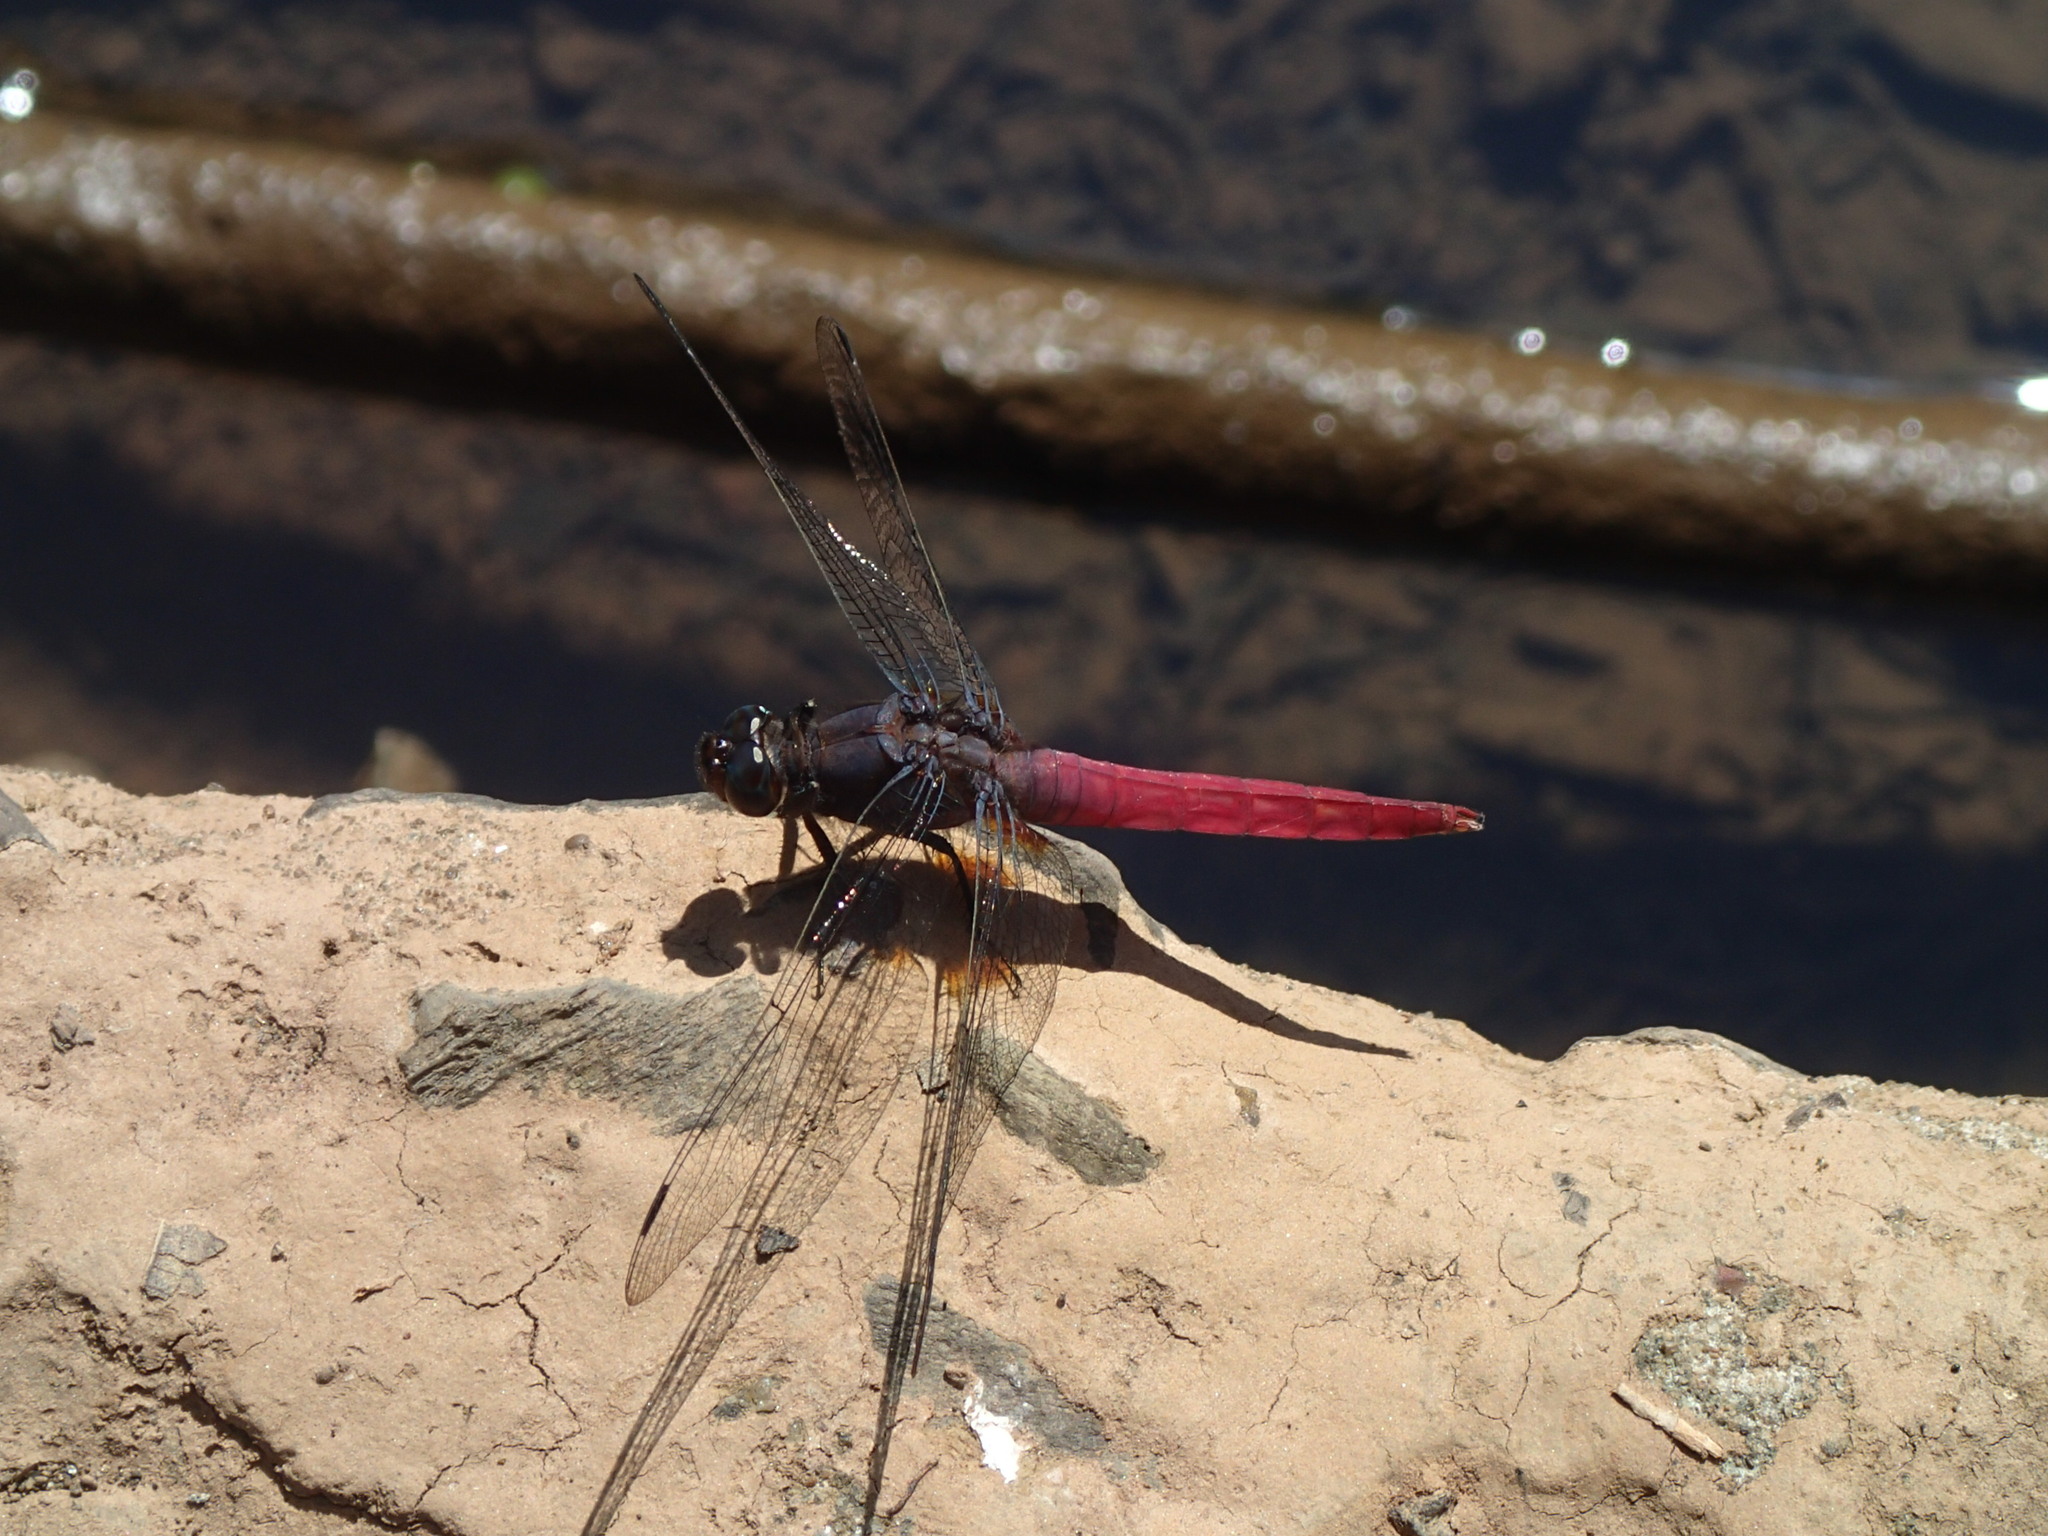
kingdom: Animalia
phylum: Arthropoda
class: Insecta
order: Odonata
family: Libellulidae
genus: Orthetrum
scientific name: Orthetrum pruinosum
